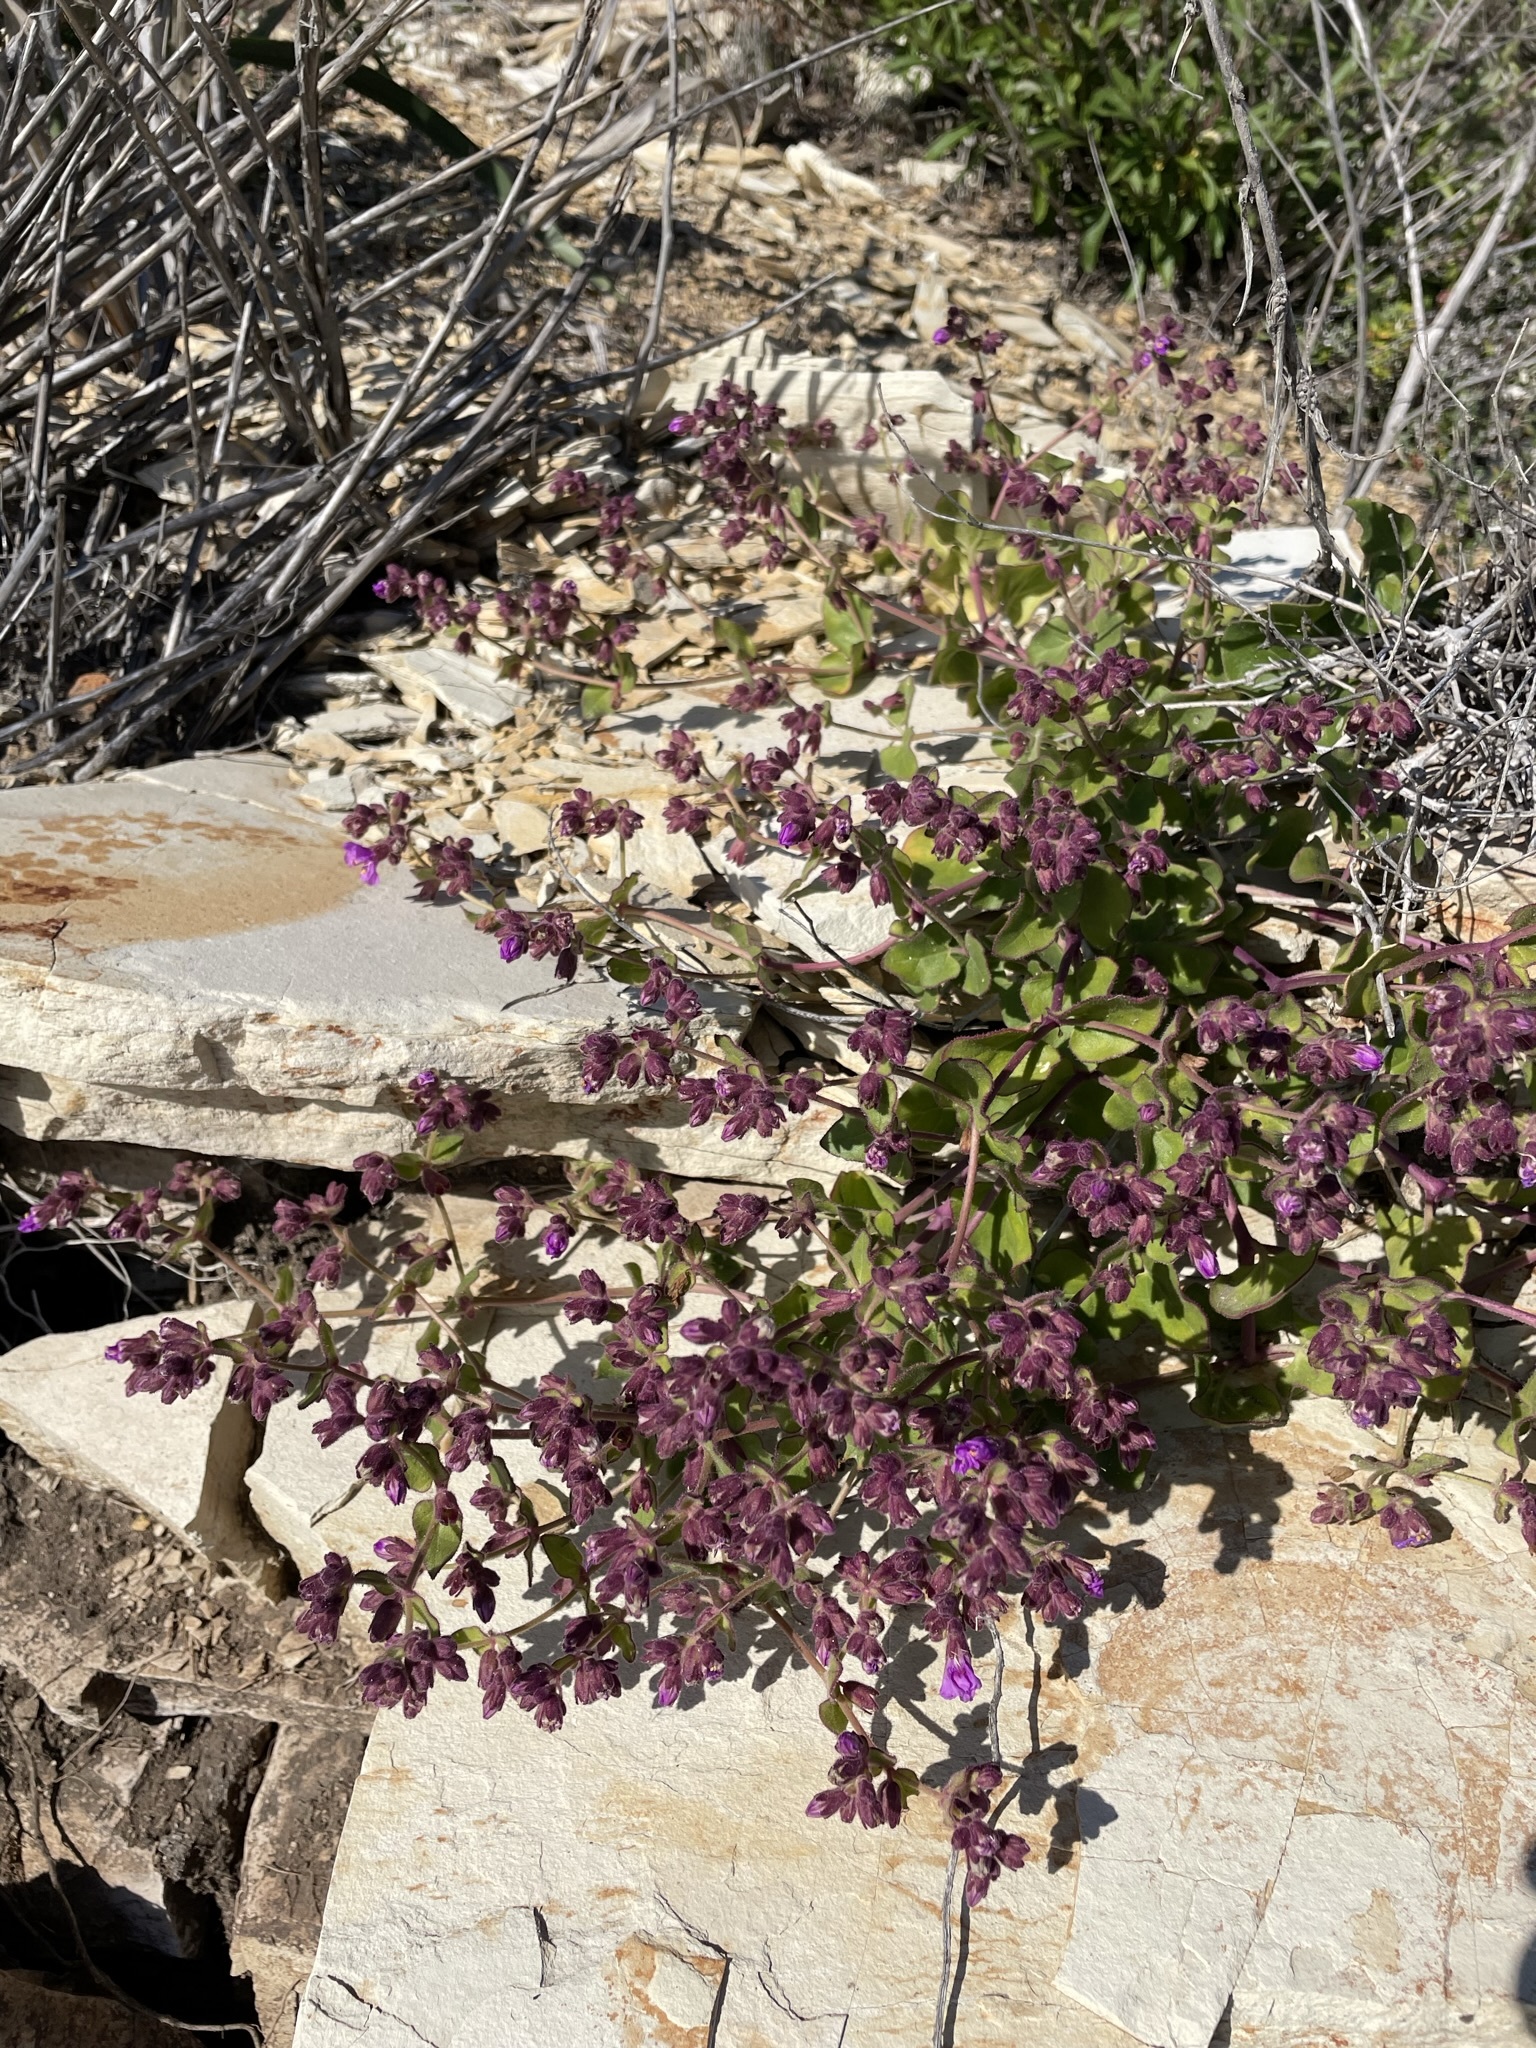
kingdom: Plantae
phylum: Tracheophyta
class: Magnoliopsida
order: Caryophyllales
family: Nyctaginaceae
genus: Mirabilis
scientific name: Mirabilis laevis
